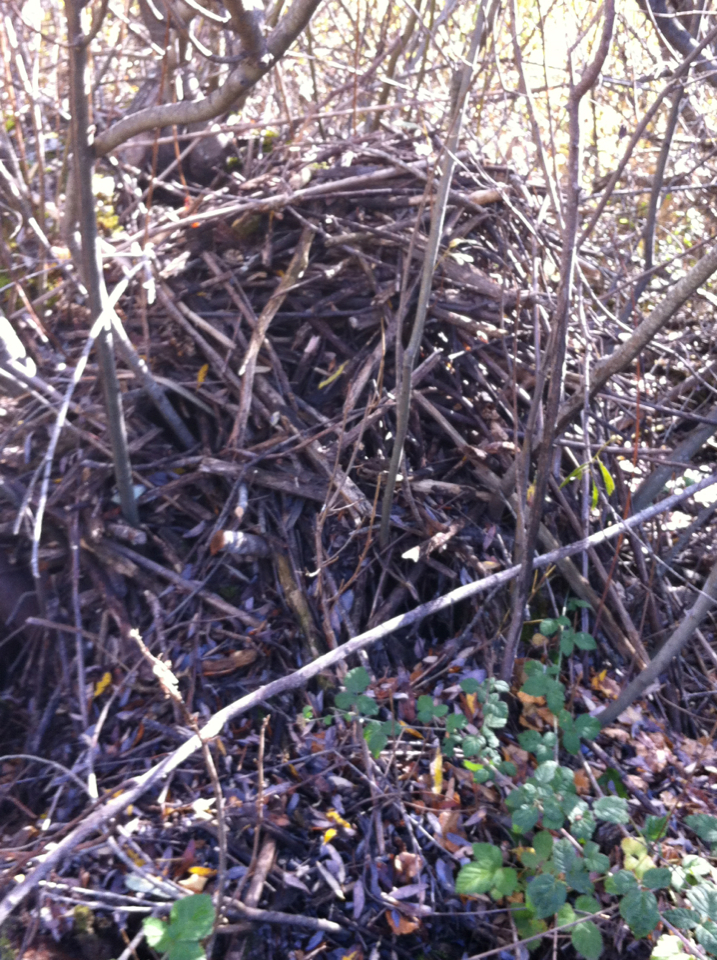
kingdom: Animalia
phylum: Chordata
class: Mammalia
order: Rodentia
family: Cricetidae
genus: Neotoma
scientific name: Neotoma fuscipes
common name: Dusky-footed woodrat
